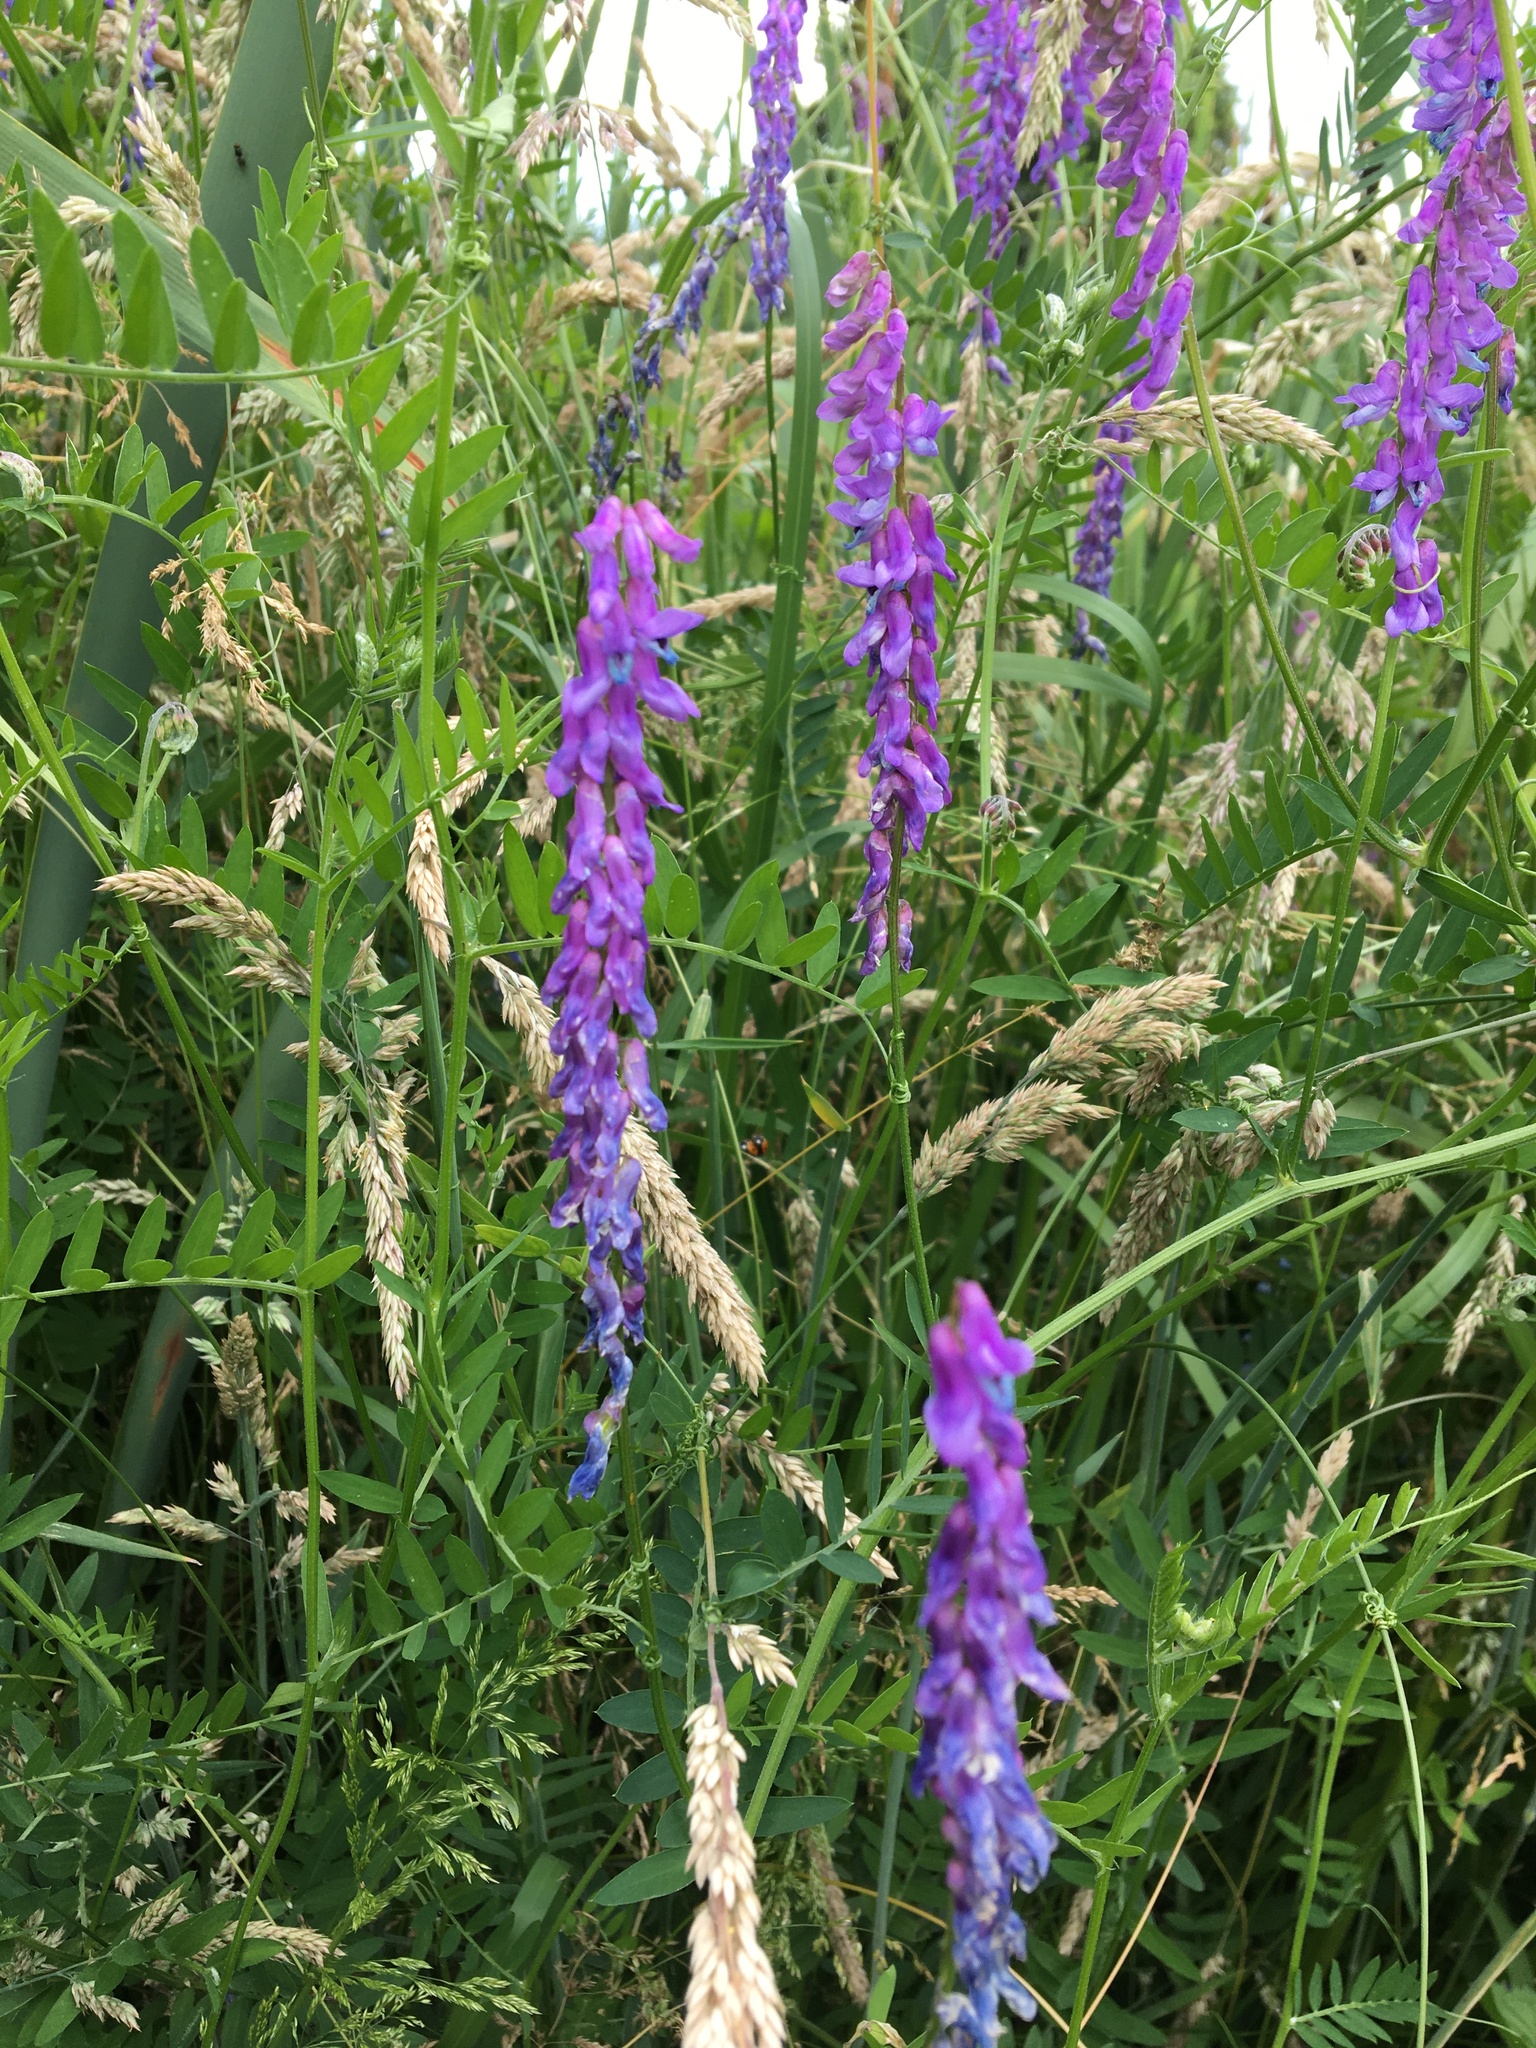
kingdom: Plantae
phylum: Tracheophyta
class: Magnoliopsida
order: Fabales
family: Fabaceae
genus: Vicia
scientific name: Vicia cracca
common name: Bird vetch
